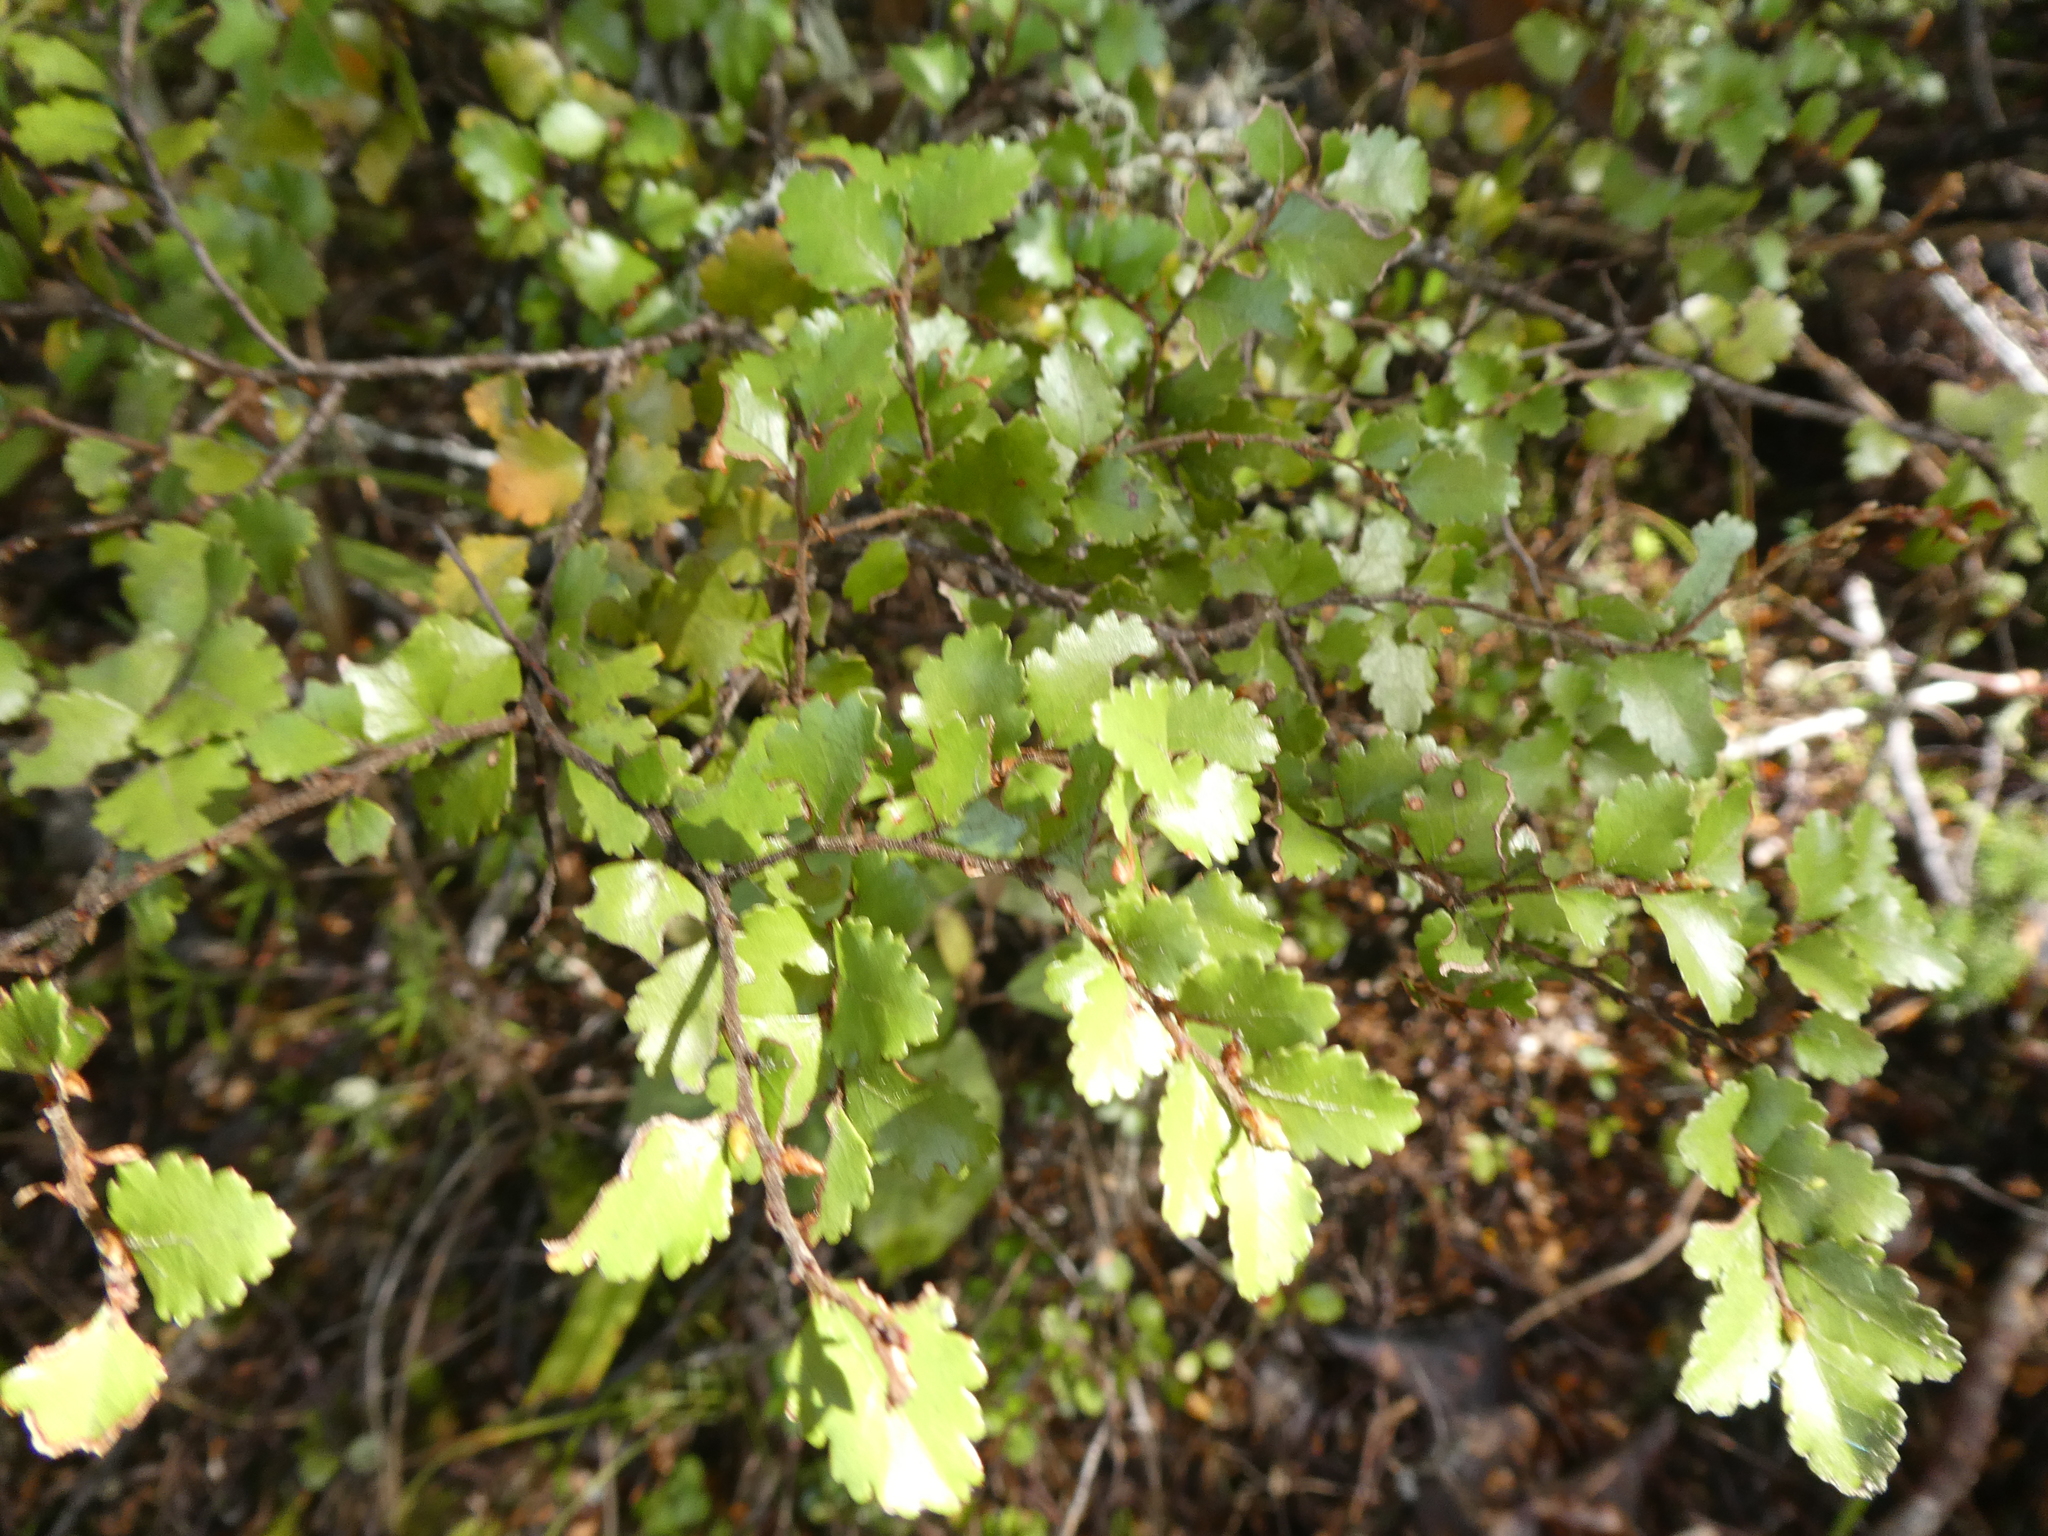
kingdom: Plantae
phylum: Tracheophyta
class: Magnoliopsida
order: Fagales
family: Nothofagaceae
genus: Nothofagus
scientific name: Nothofagus menziesii
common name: Silver beech
